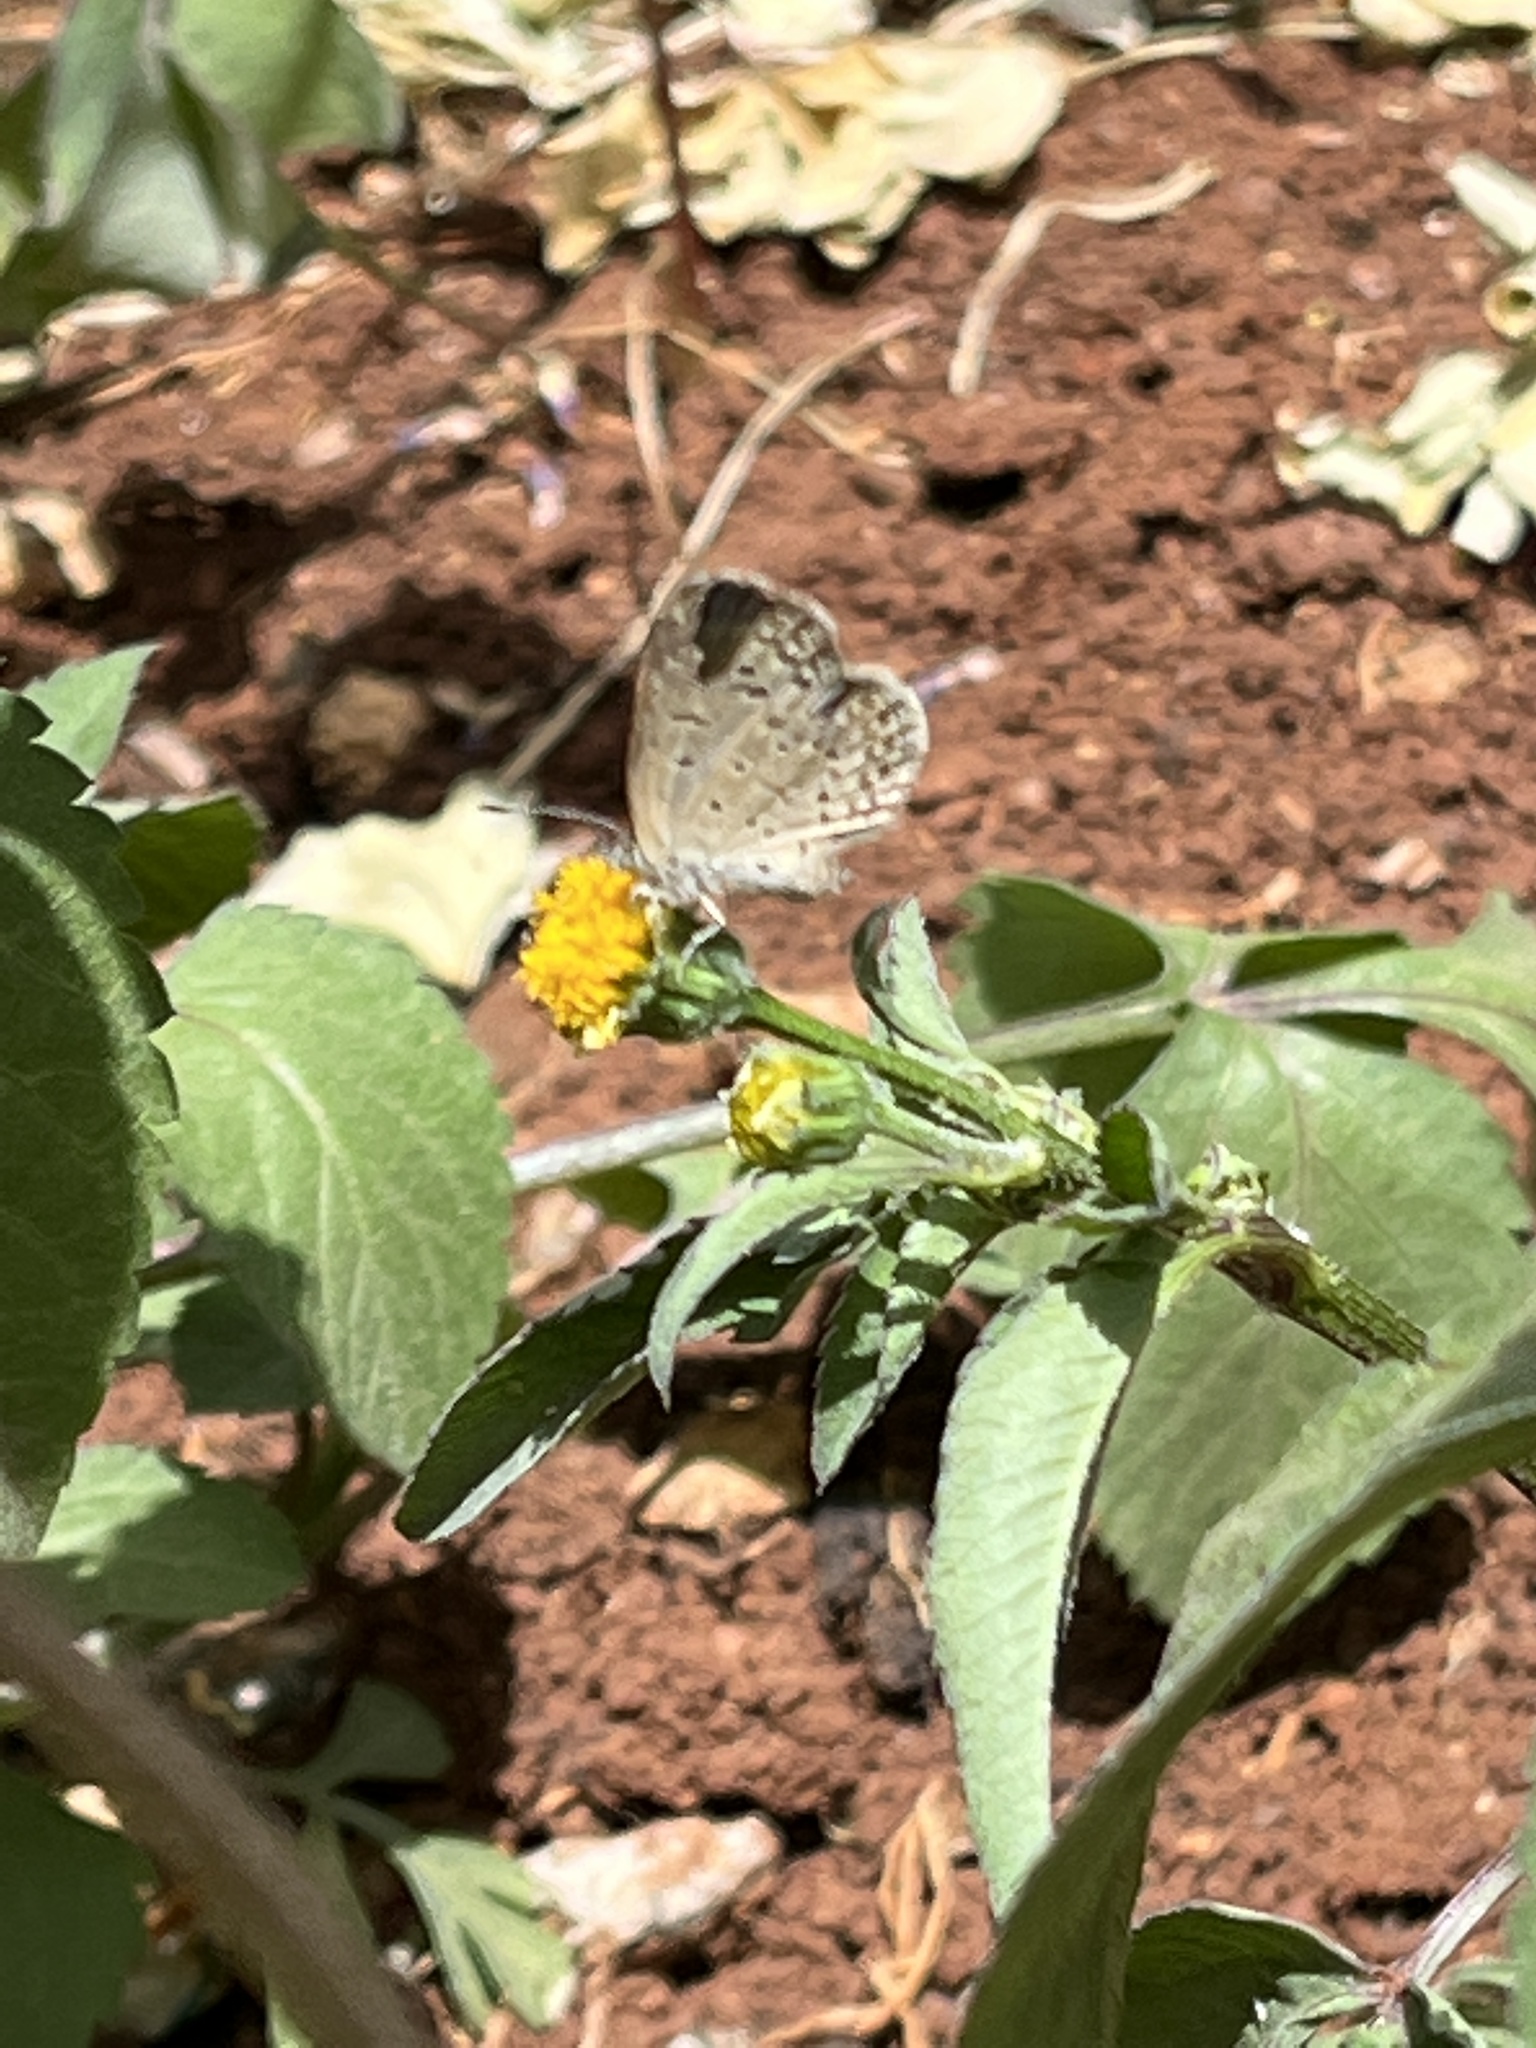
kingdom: Animalia
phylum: Arthropoda
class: Insecta
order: Lepidoptera
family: Lycaenidae
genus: Zizeeria
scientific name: Zizeeria knysna
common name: African grass blue
